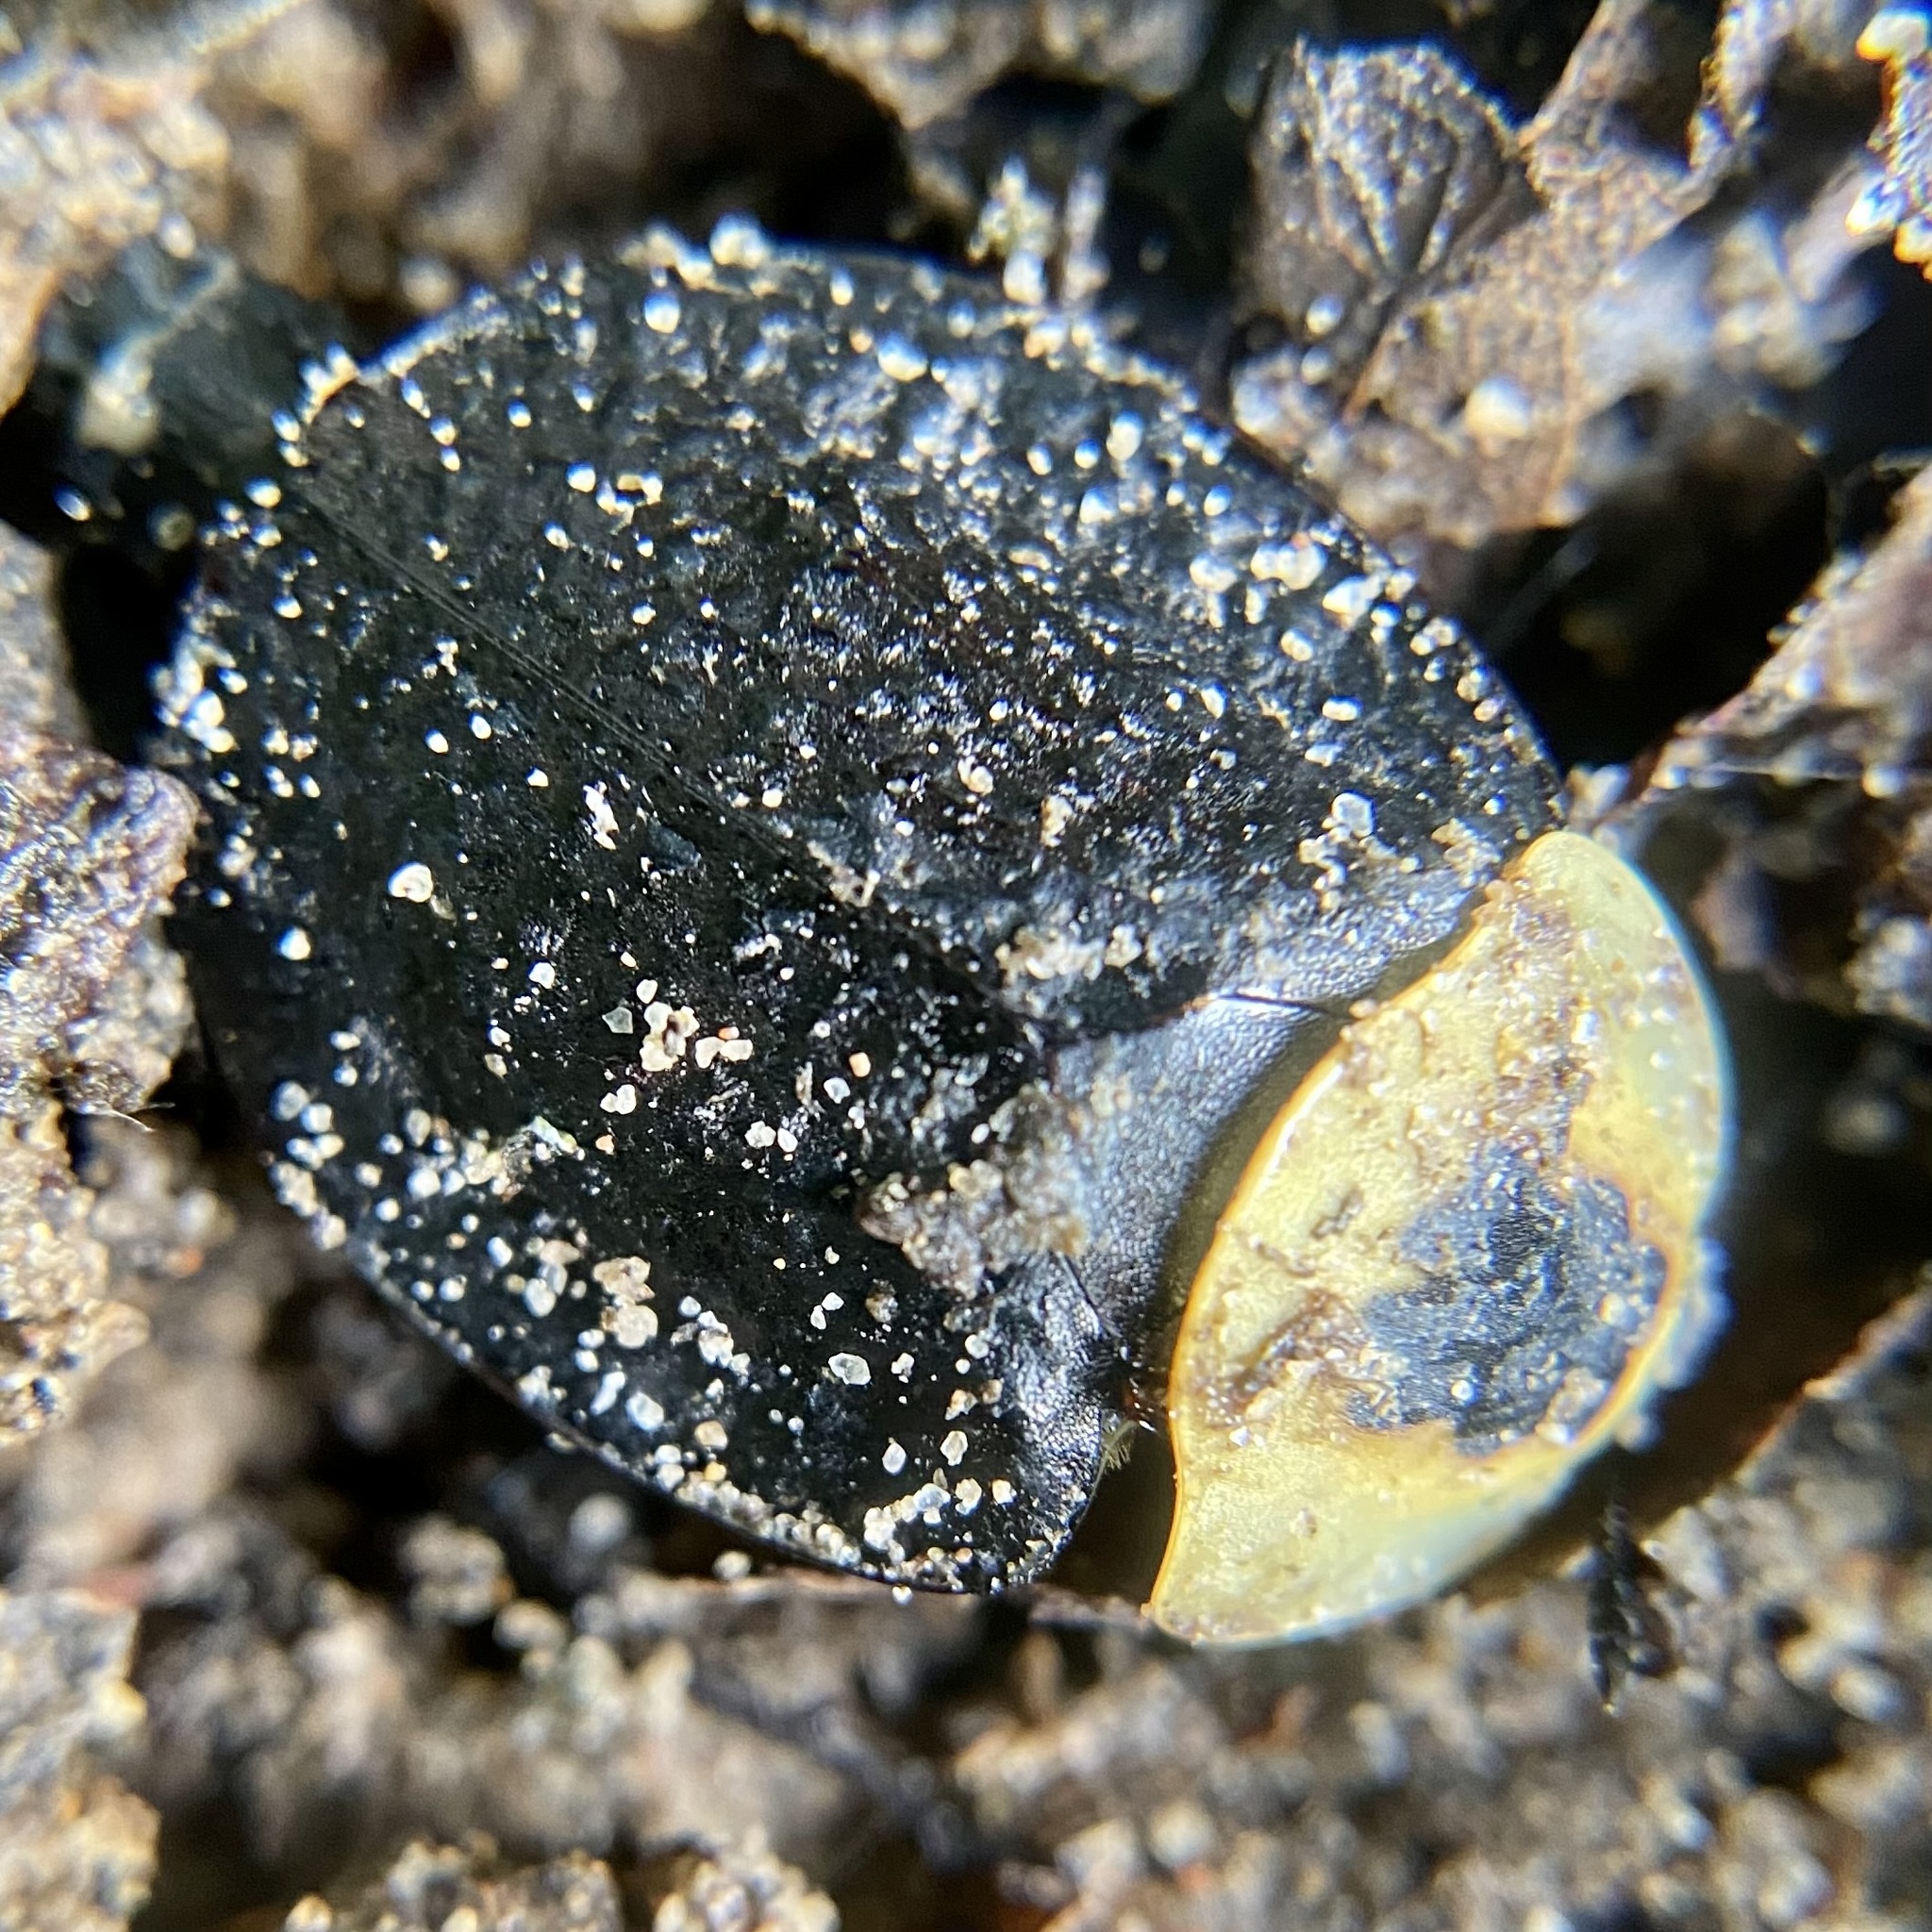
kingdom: Animalia
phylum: Arthropoda
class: Insecta
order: Coleoptera
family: Staphylinidae
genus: Necrophila
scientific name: Necrophila americana
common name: American carrion beetle
